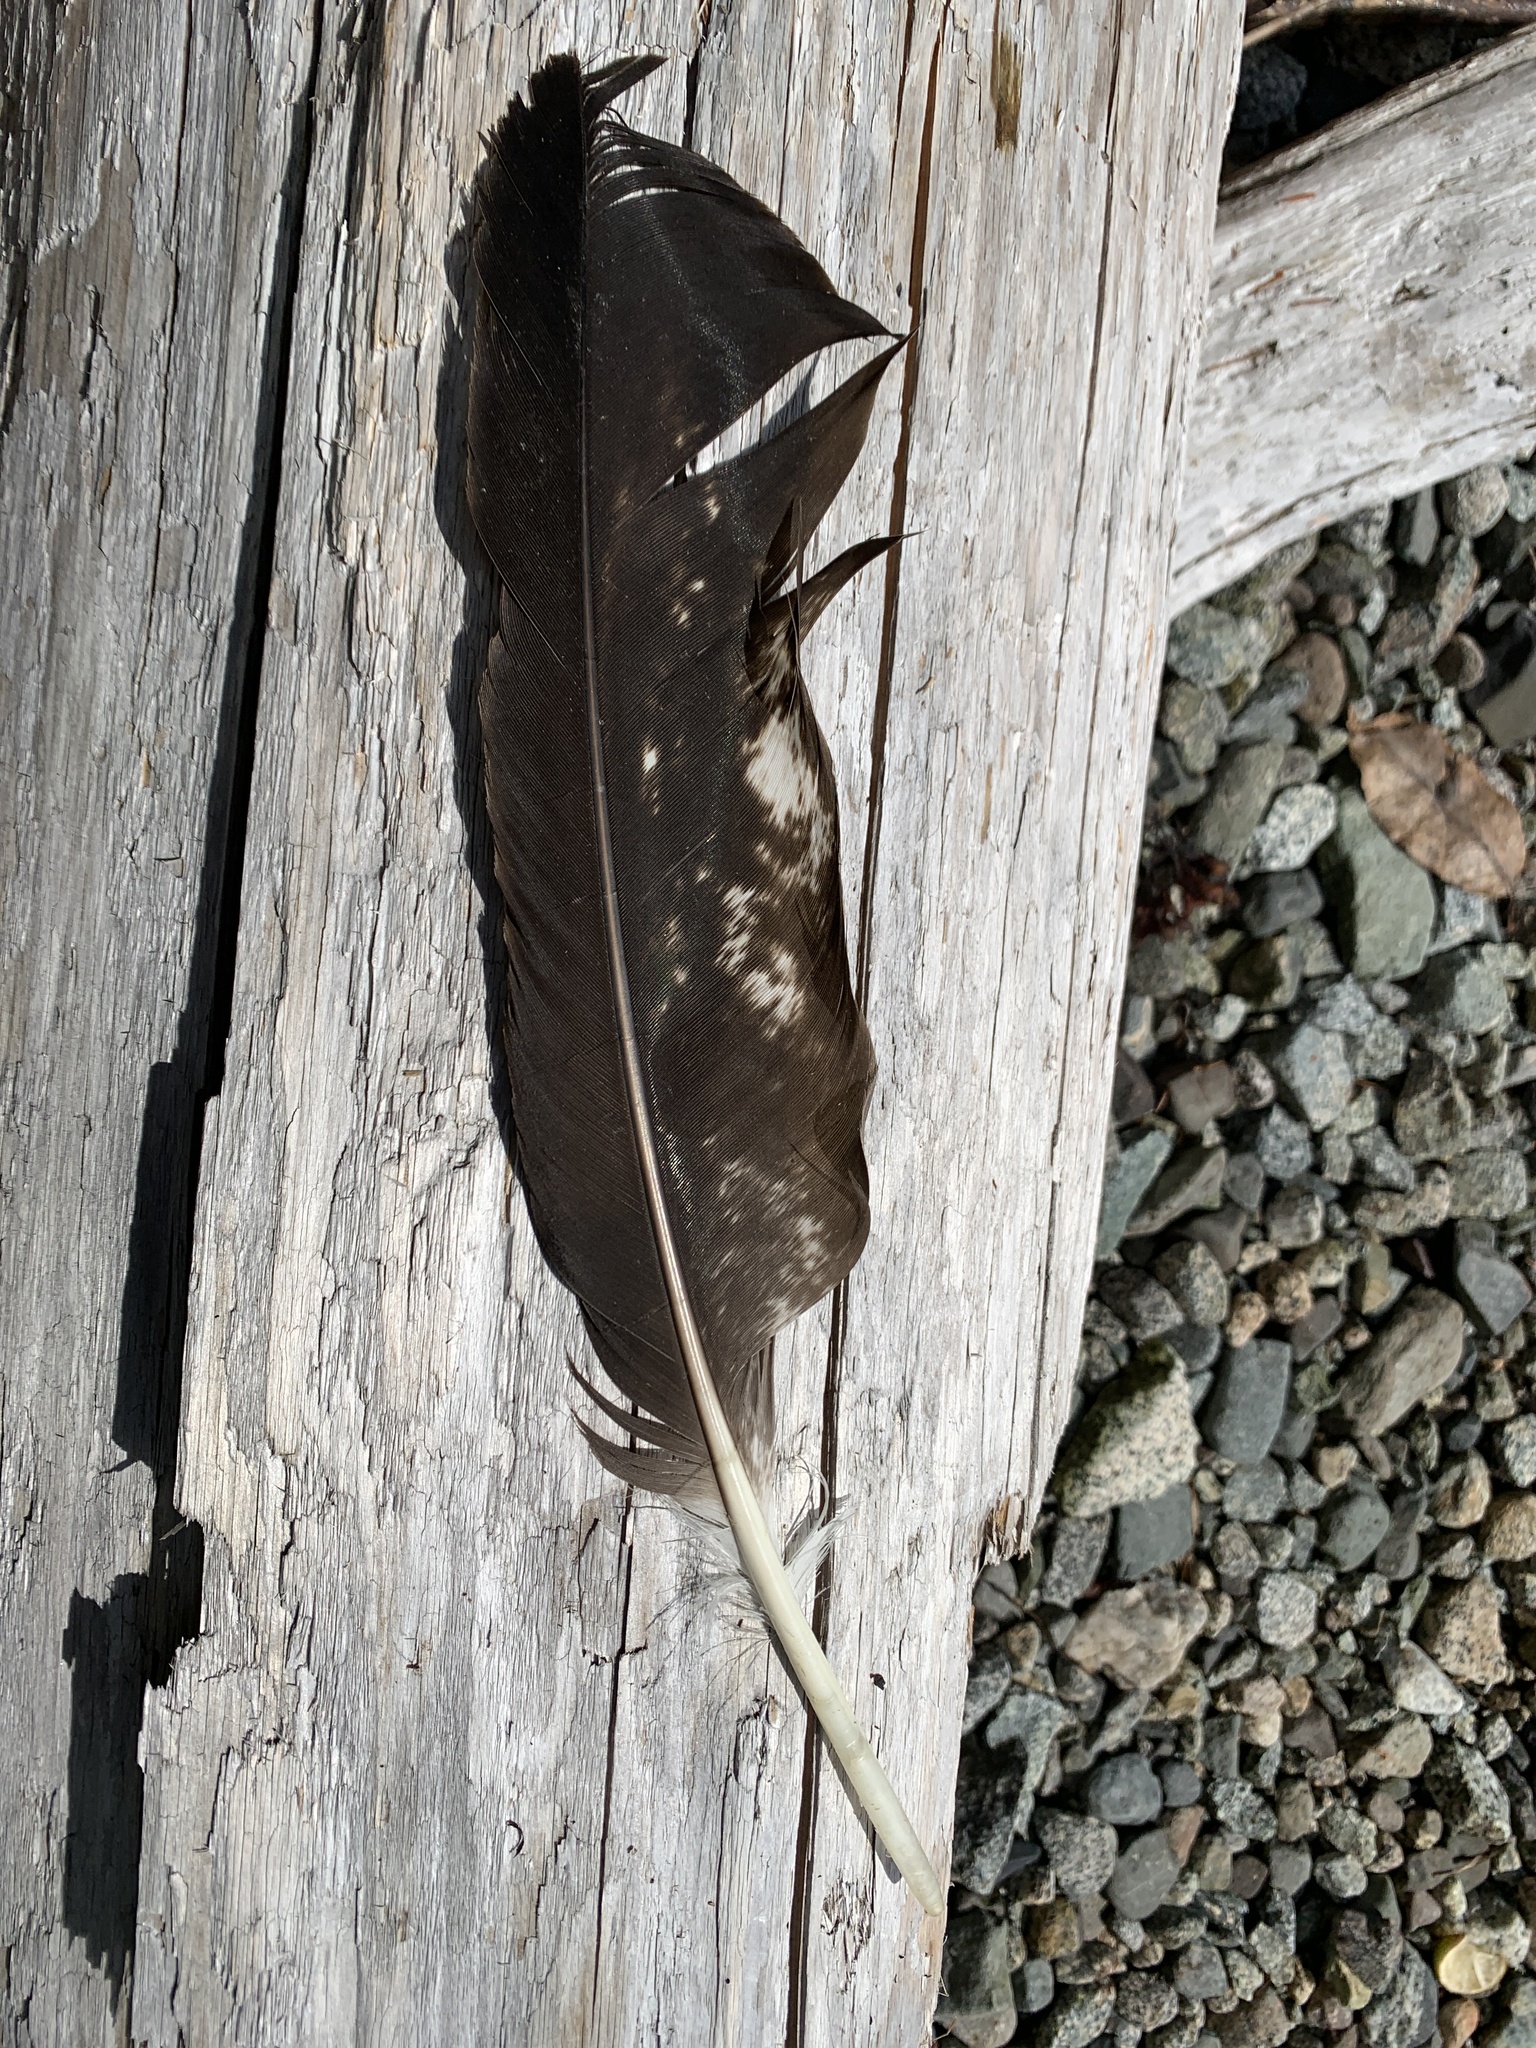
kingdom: Animalia
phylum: Chordata
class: Aves
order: Accipitriformes
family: Accipitridae
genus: Haliaeetus
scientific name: Haliaeetus leucocephalus
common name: Bald eagle
